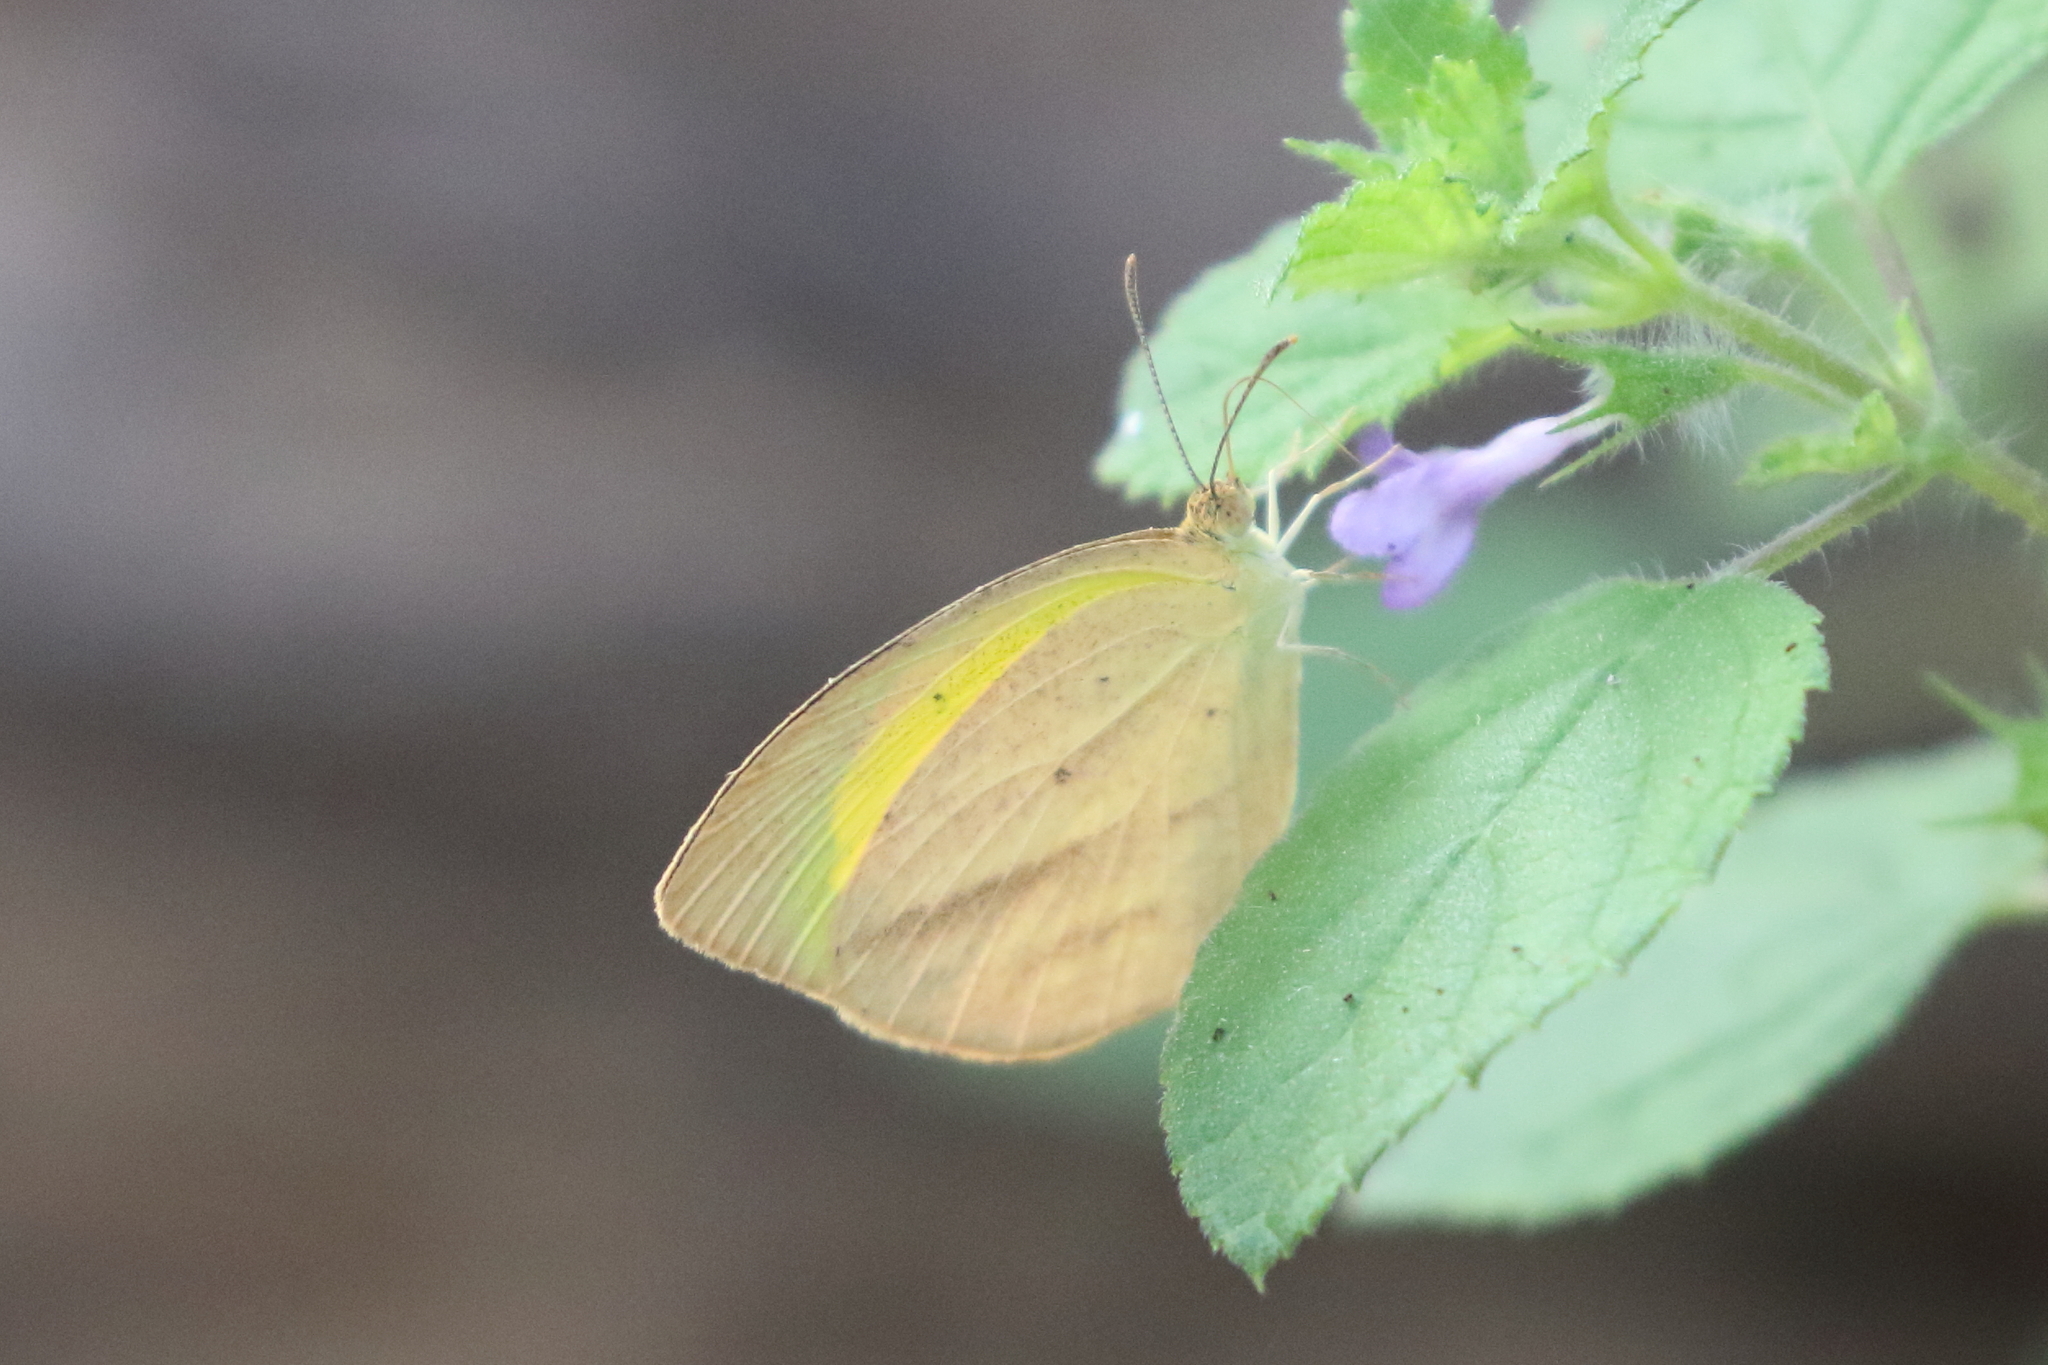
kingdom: Animalia
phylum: Arthropoda
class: Insecta
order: Lepidoptera
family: Pieridae
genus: Eurema
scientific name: Eurema laeta
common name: Spotless grass yellow
